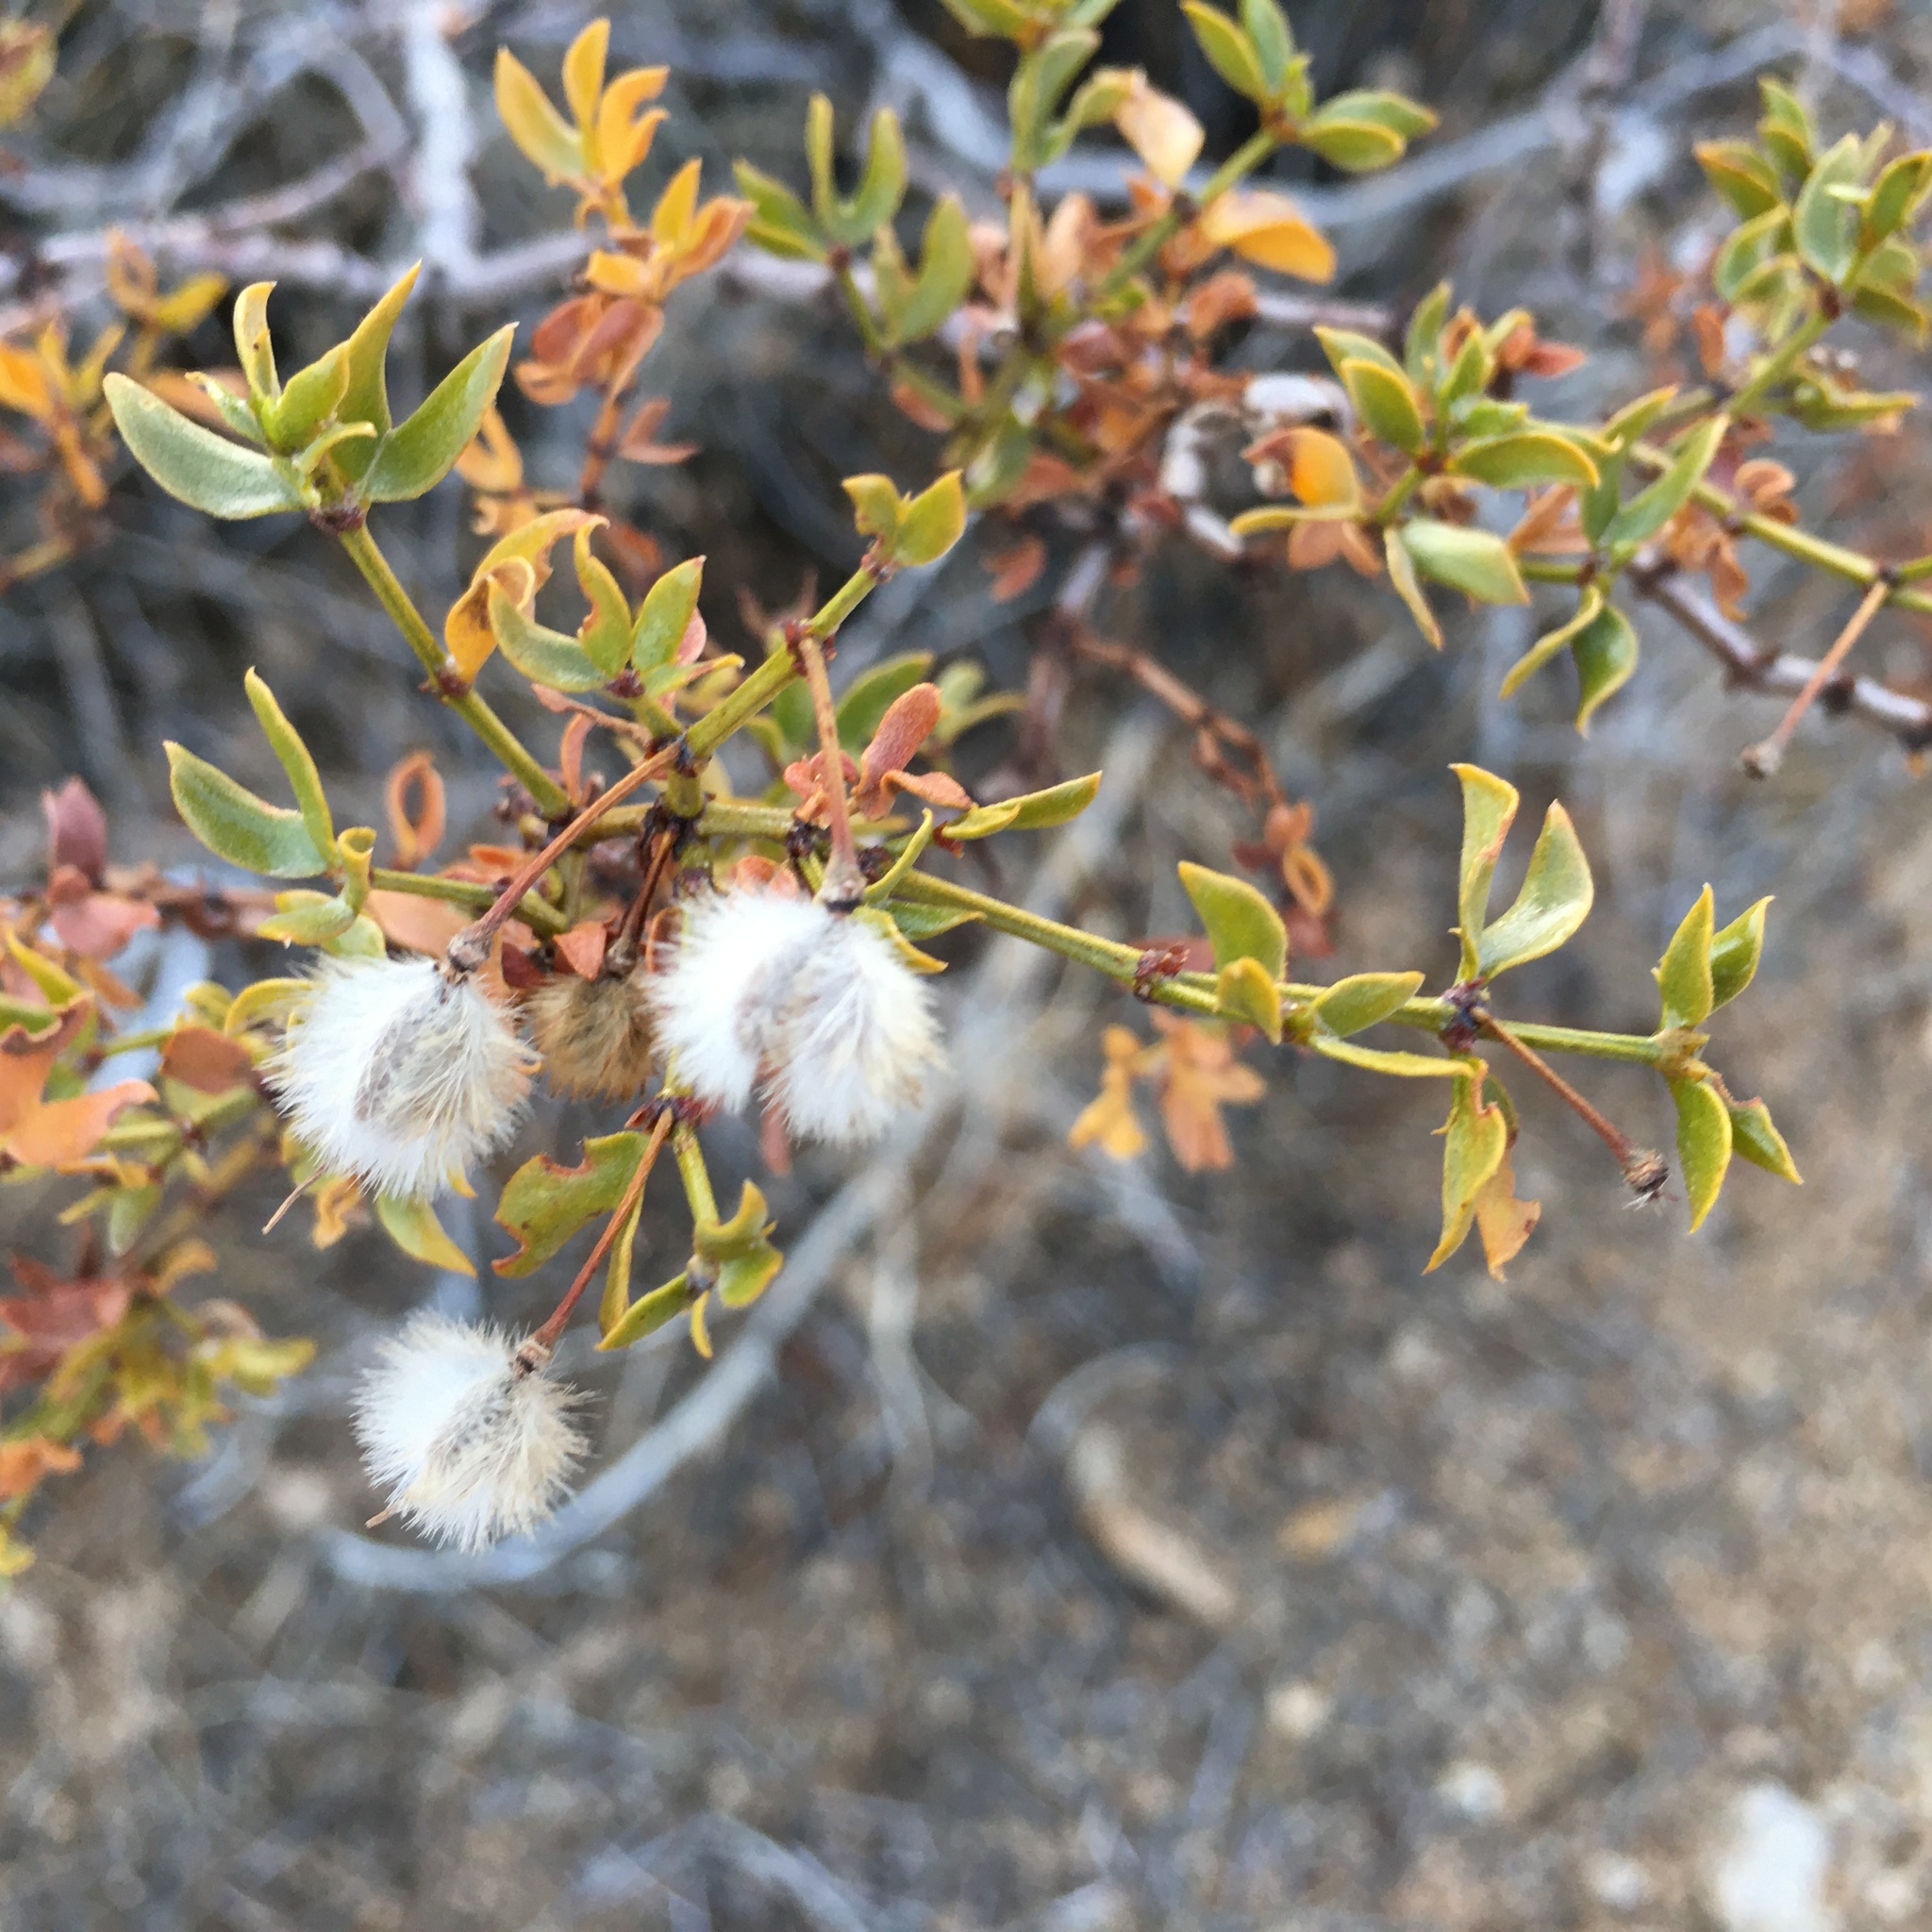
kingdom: Plantae
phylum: Tracheophyta
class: Magnoliopsida
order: Zygophyllales
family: Zygophyllaceae
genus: Larrea
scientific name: Larrea tridentata
